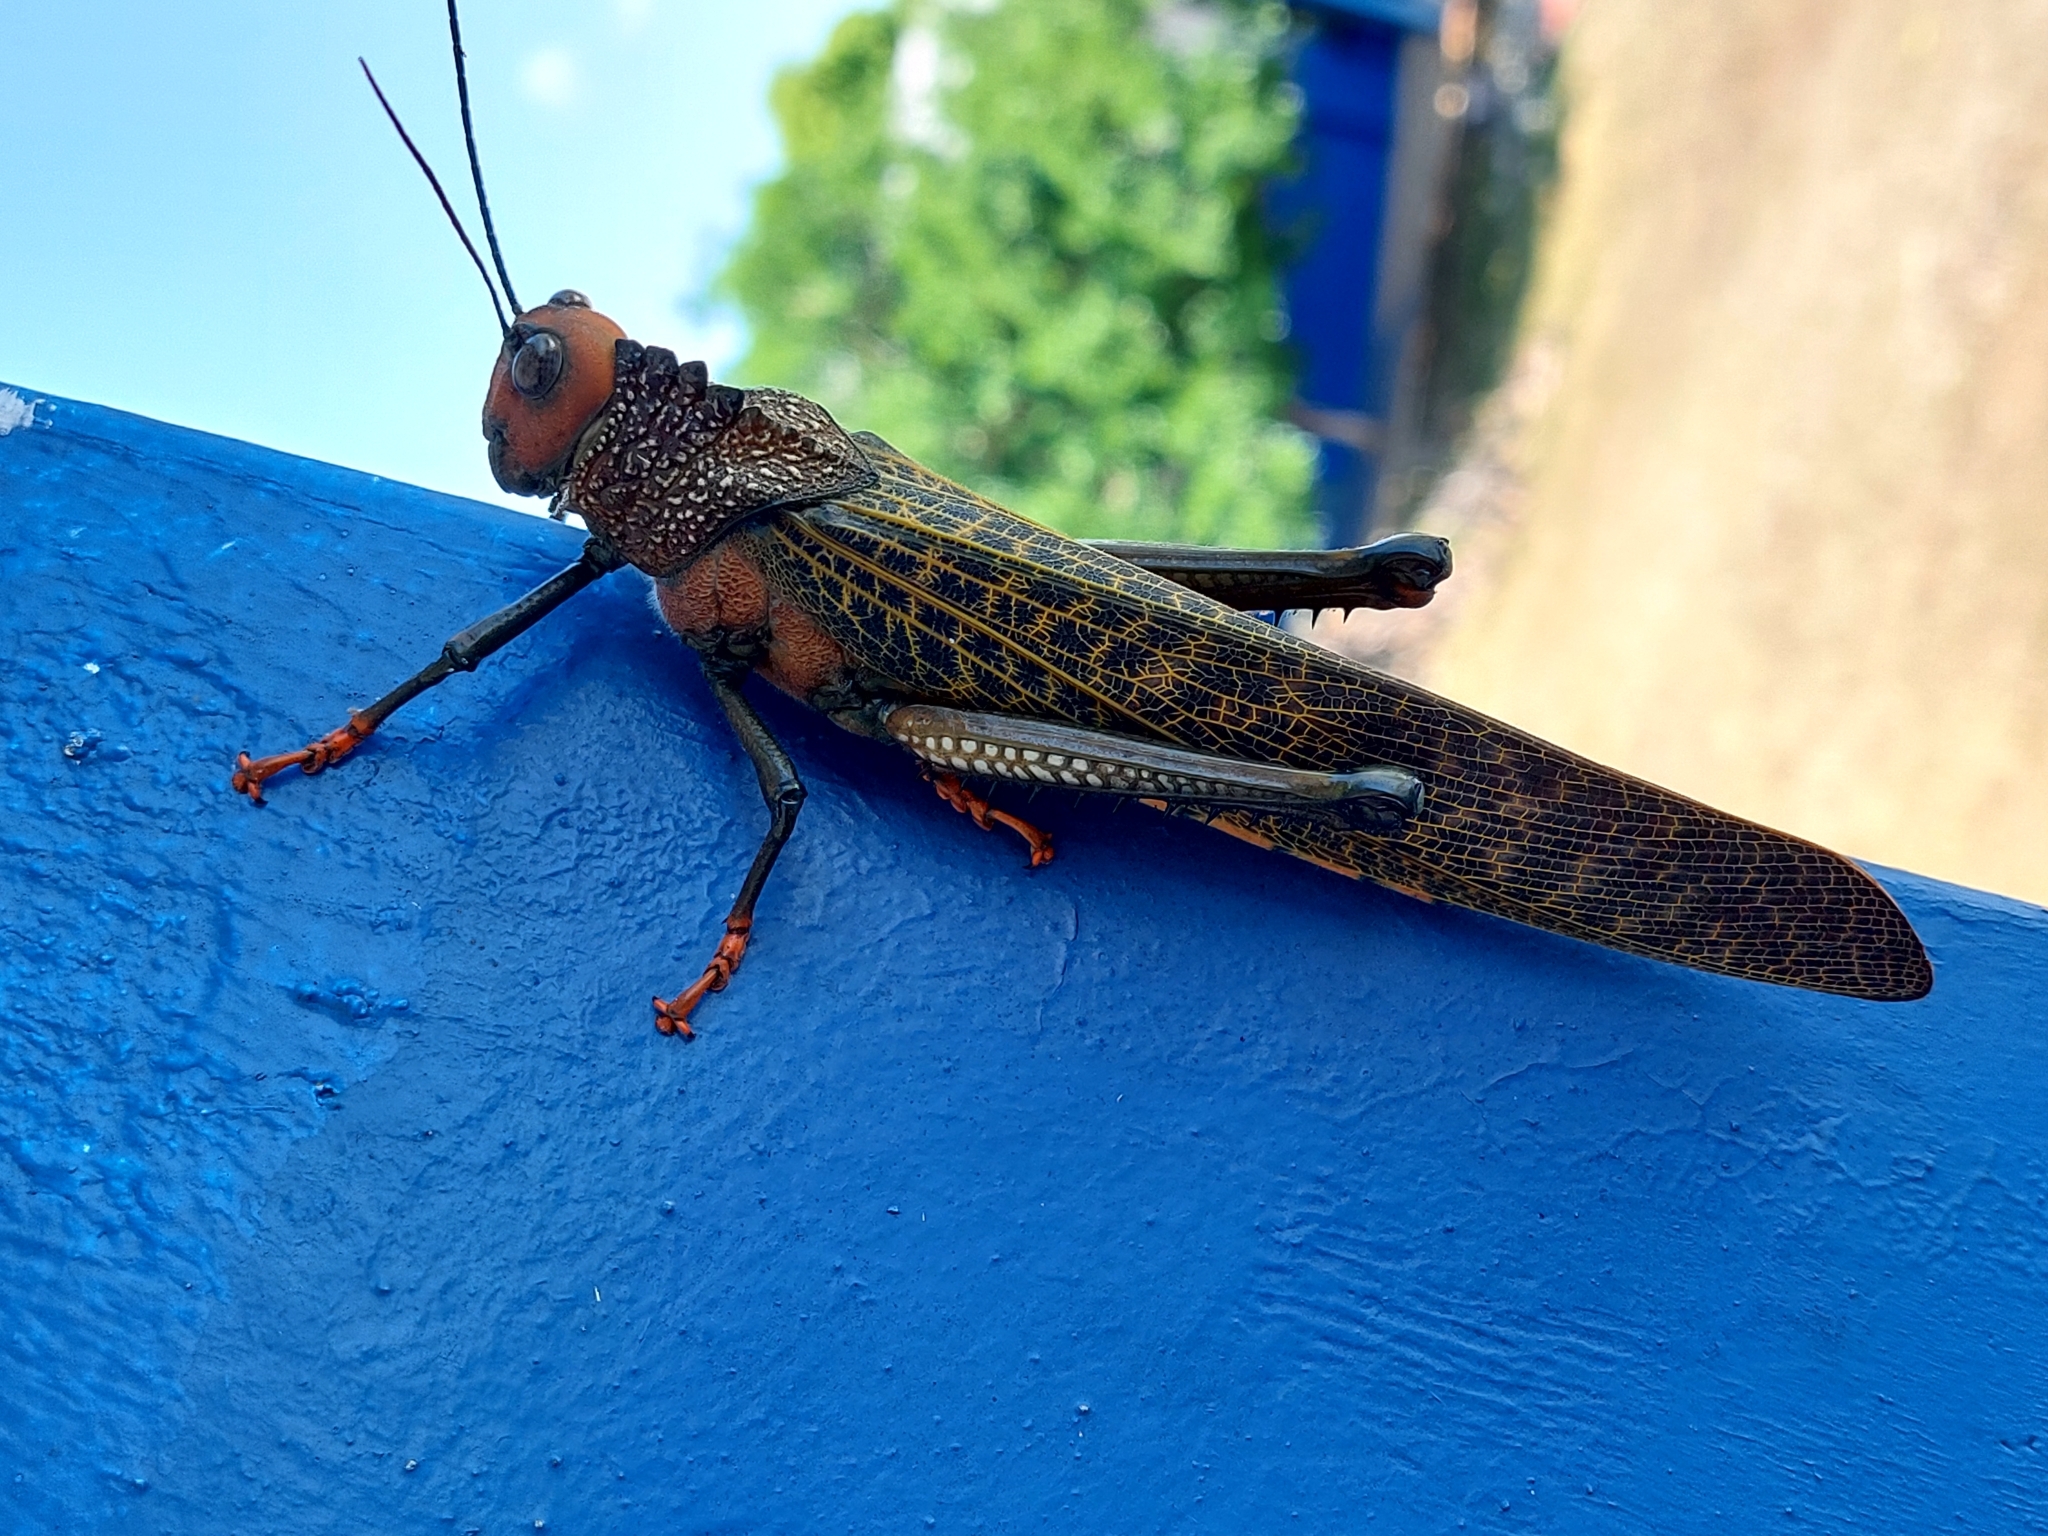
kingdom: Animalia
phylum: Arthropoda
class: Insecta
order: Orthoptera
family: Romaleidae
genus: Tropidacris
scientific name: Tropidacris cristata
